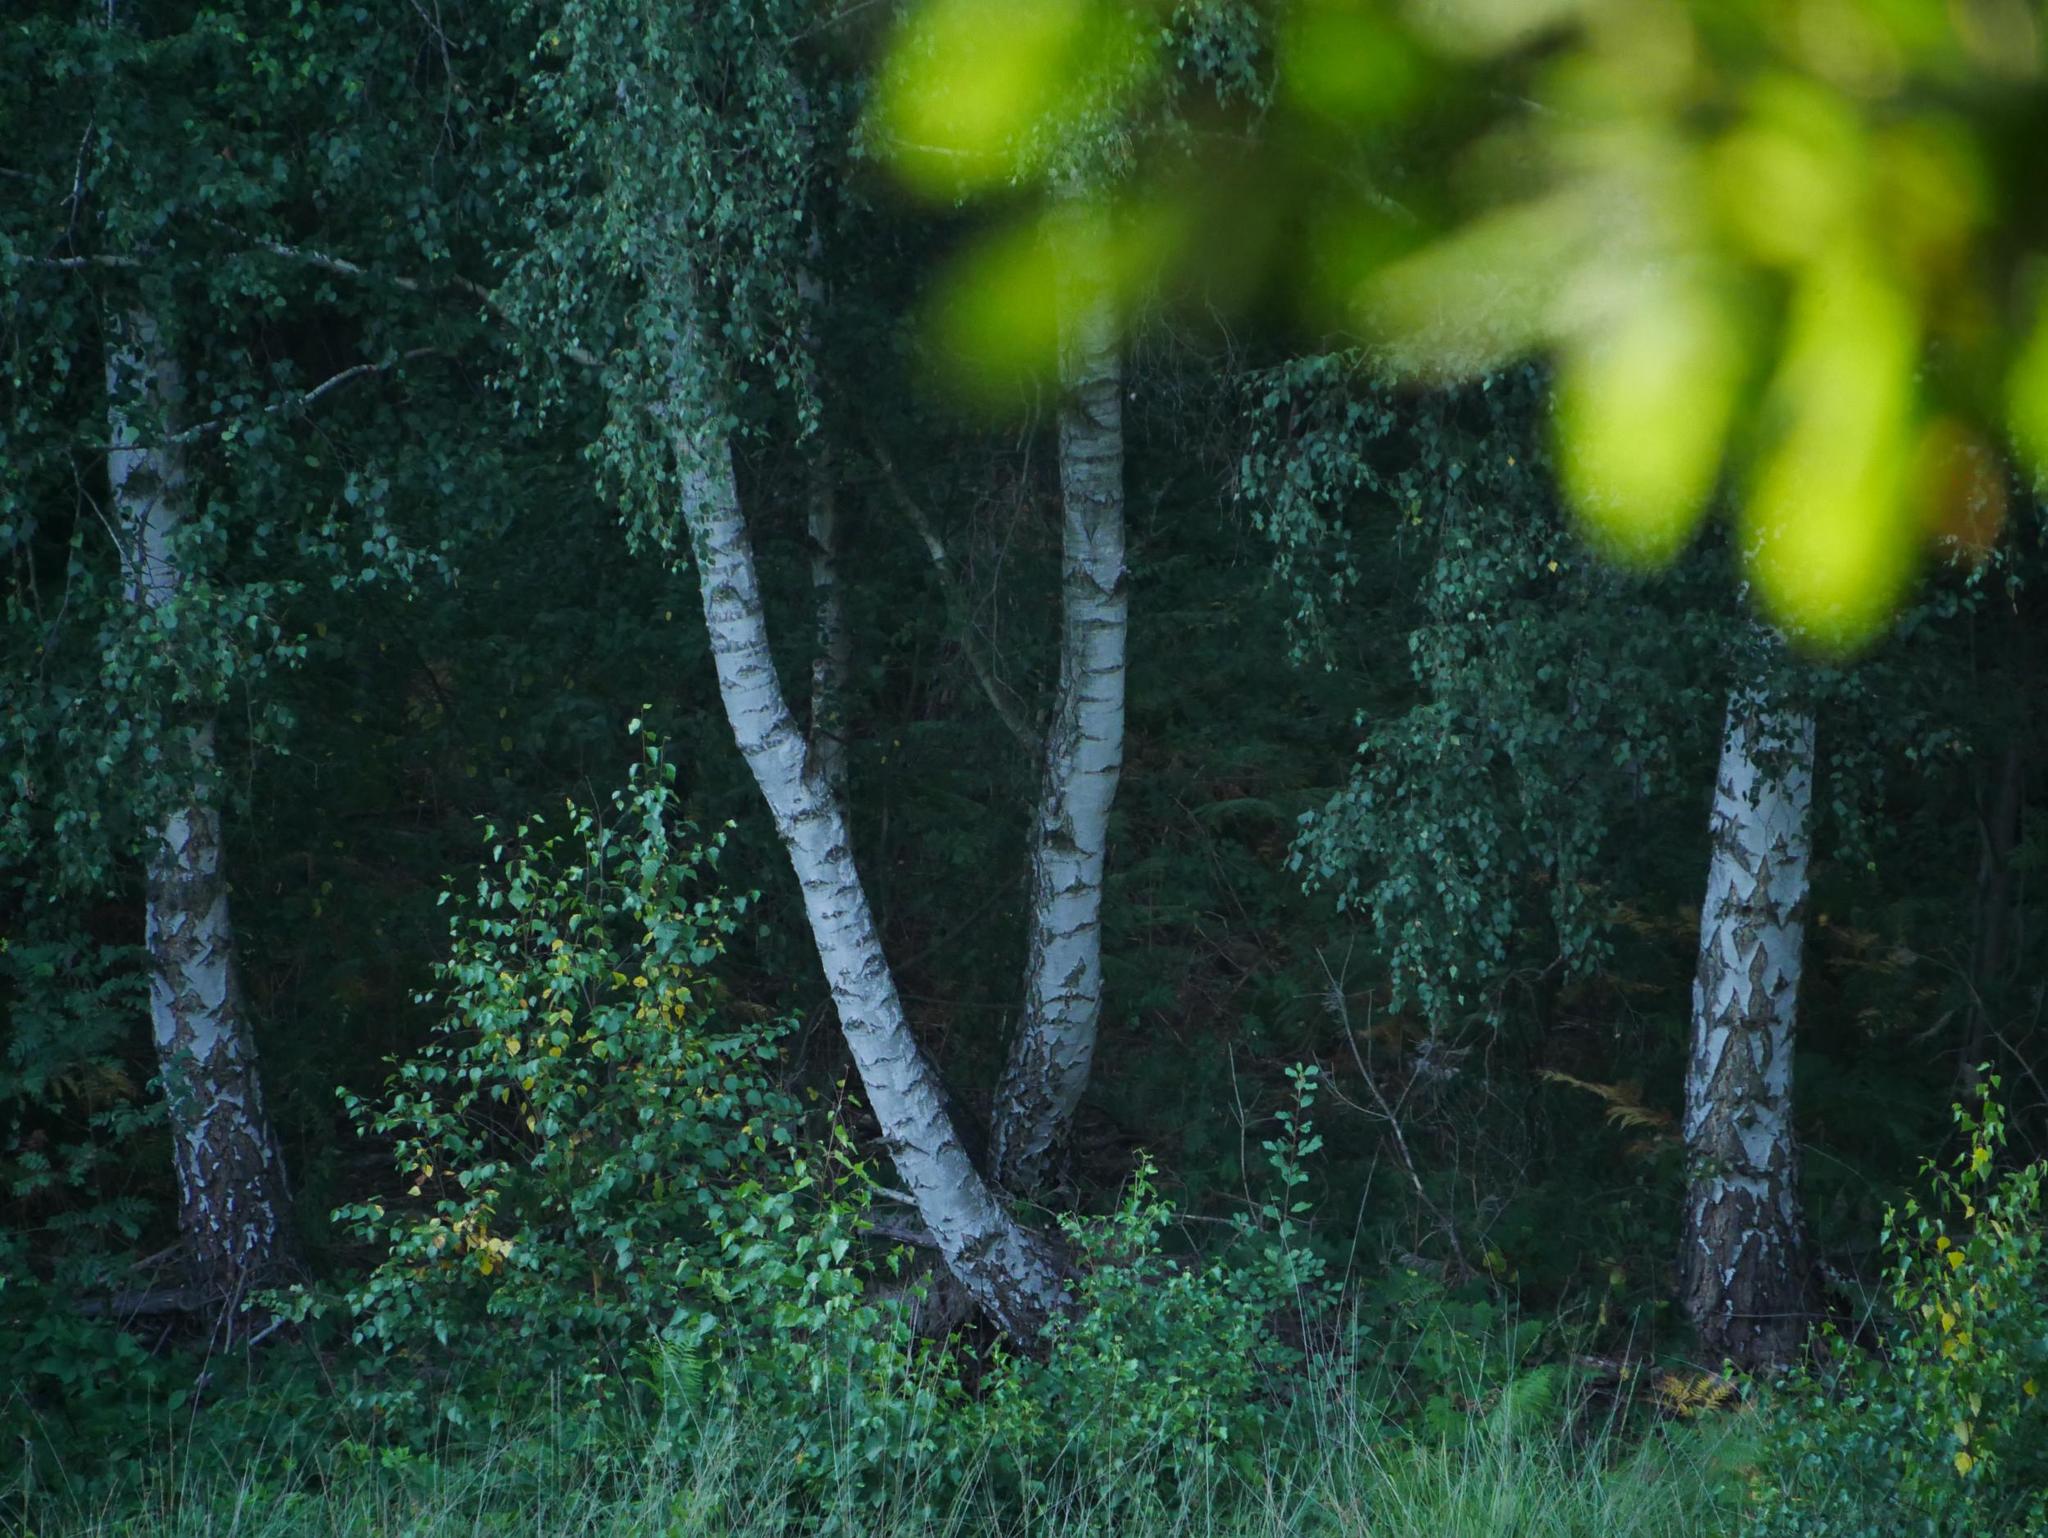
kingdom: Plantae
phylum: Tracheophyta
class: Magnoliopsida
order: Fagales
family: Betulaceae
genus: Betula
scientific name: Betula pendula
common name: Silver birch
